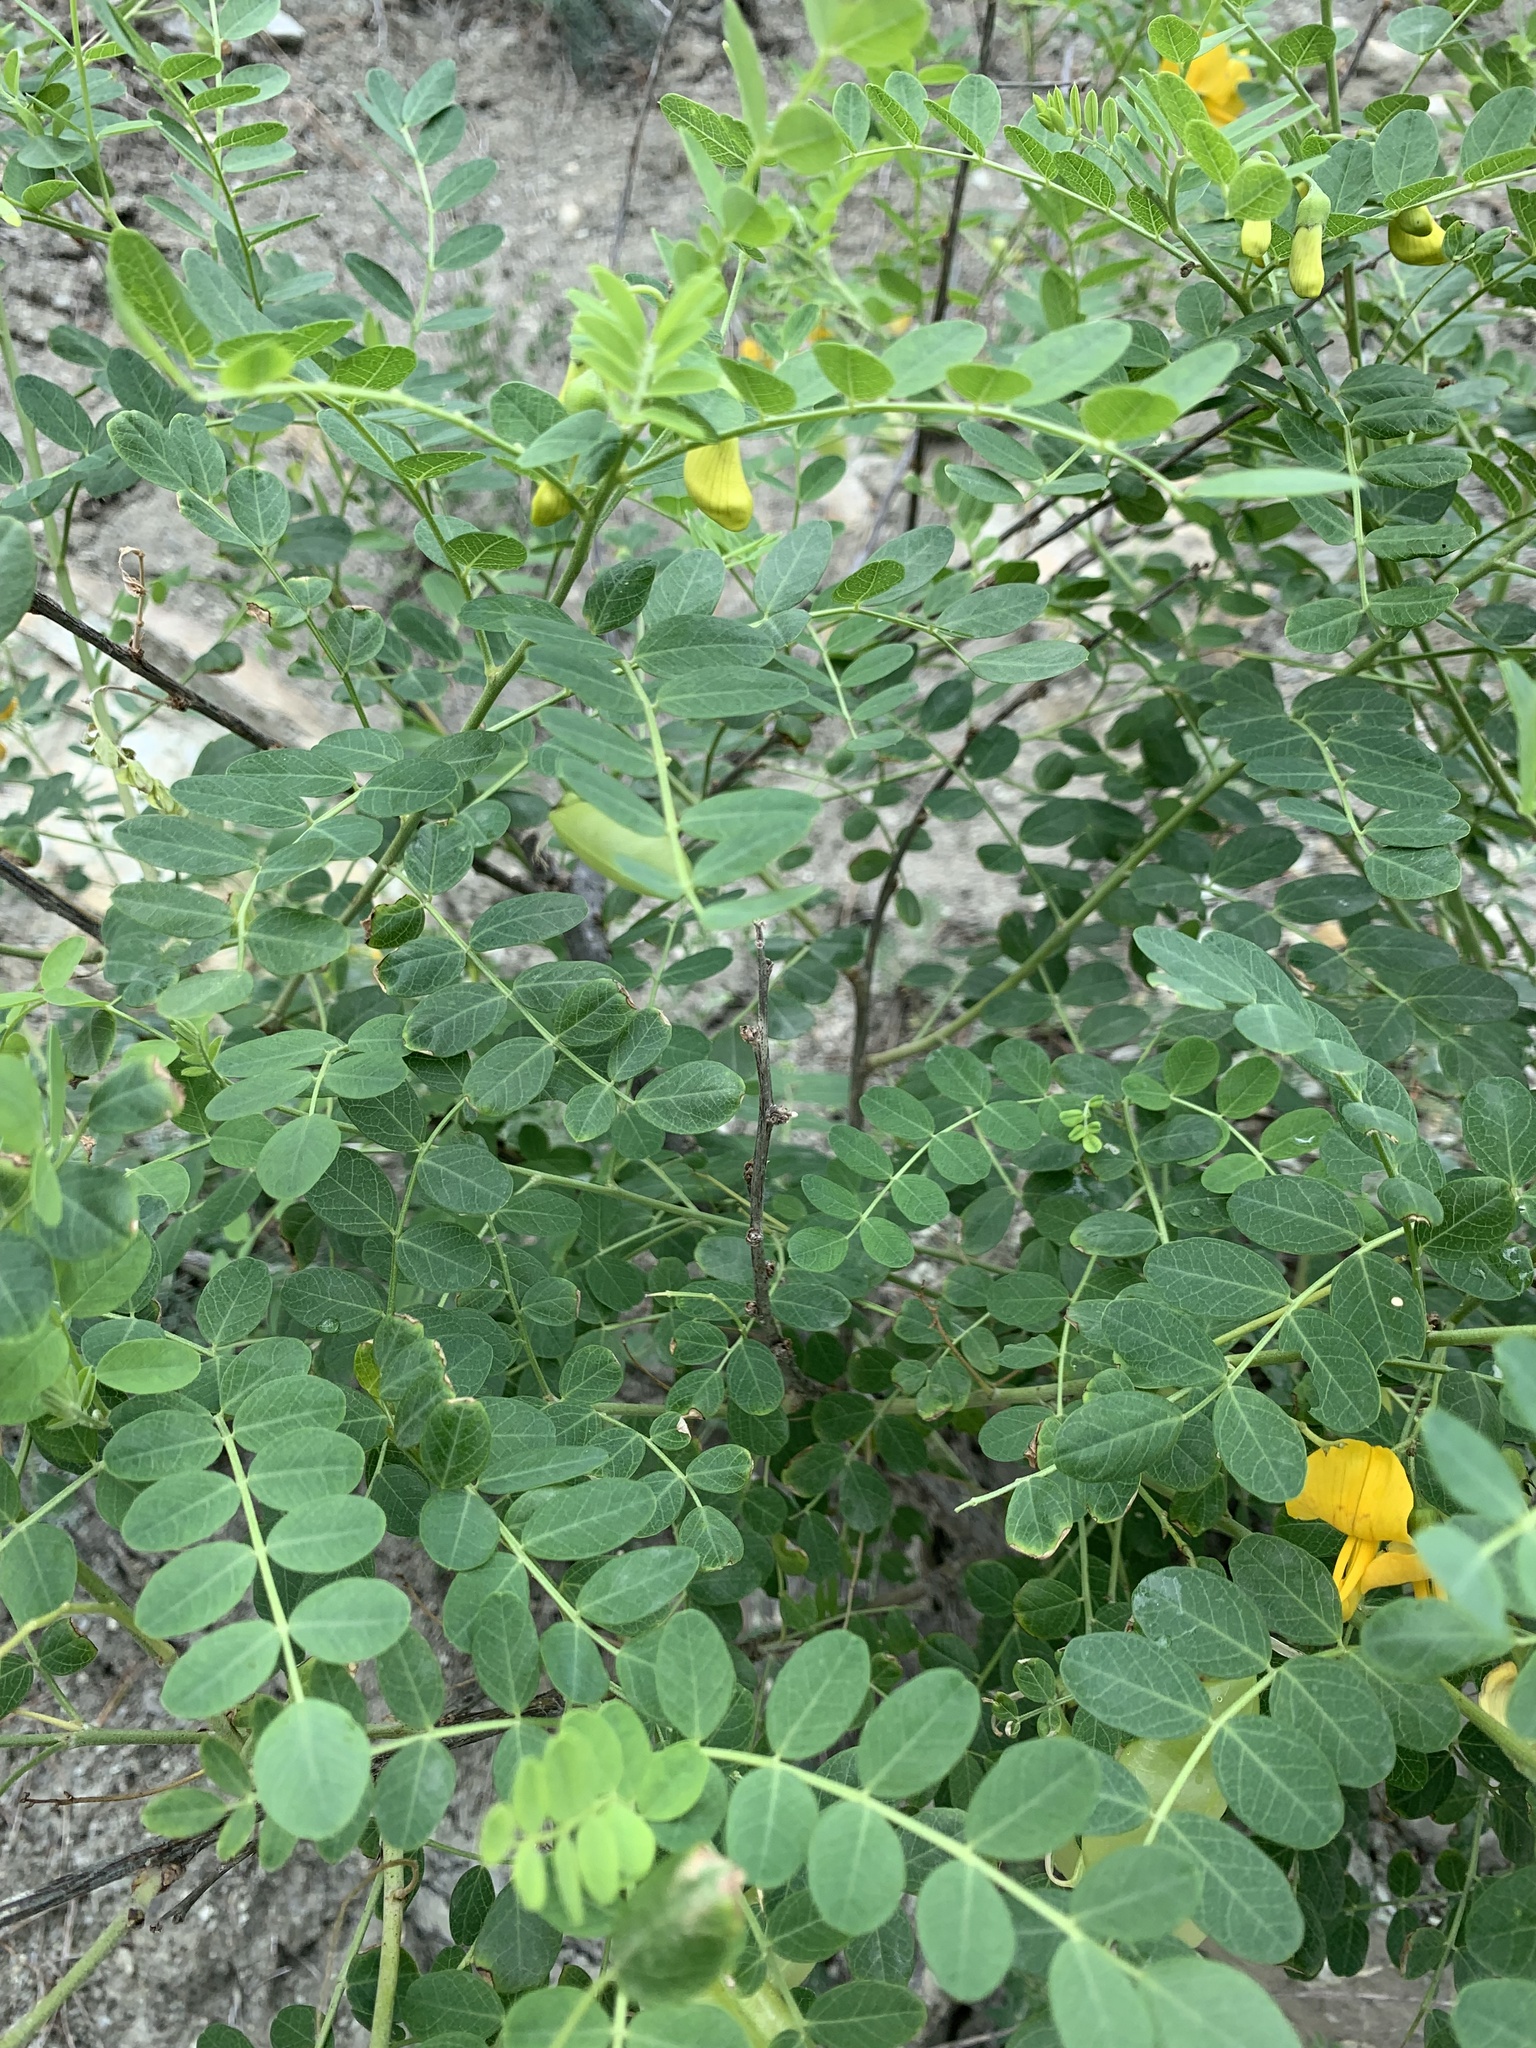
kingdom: Plantae
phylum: Tracheophyta
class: Magnoliopsida
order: Fabales
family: Fabaceae
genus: Colutea
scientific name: Colutea cilicica
